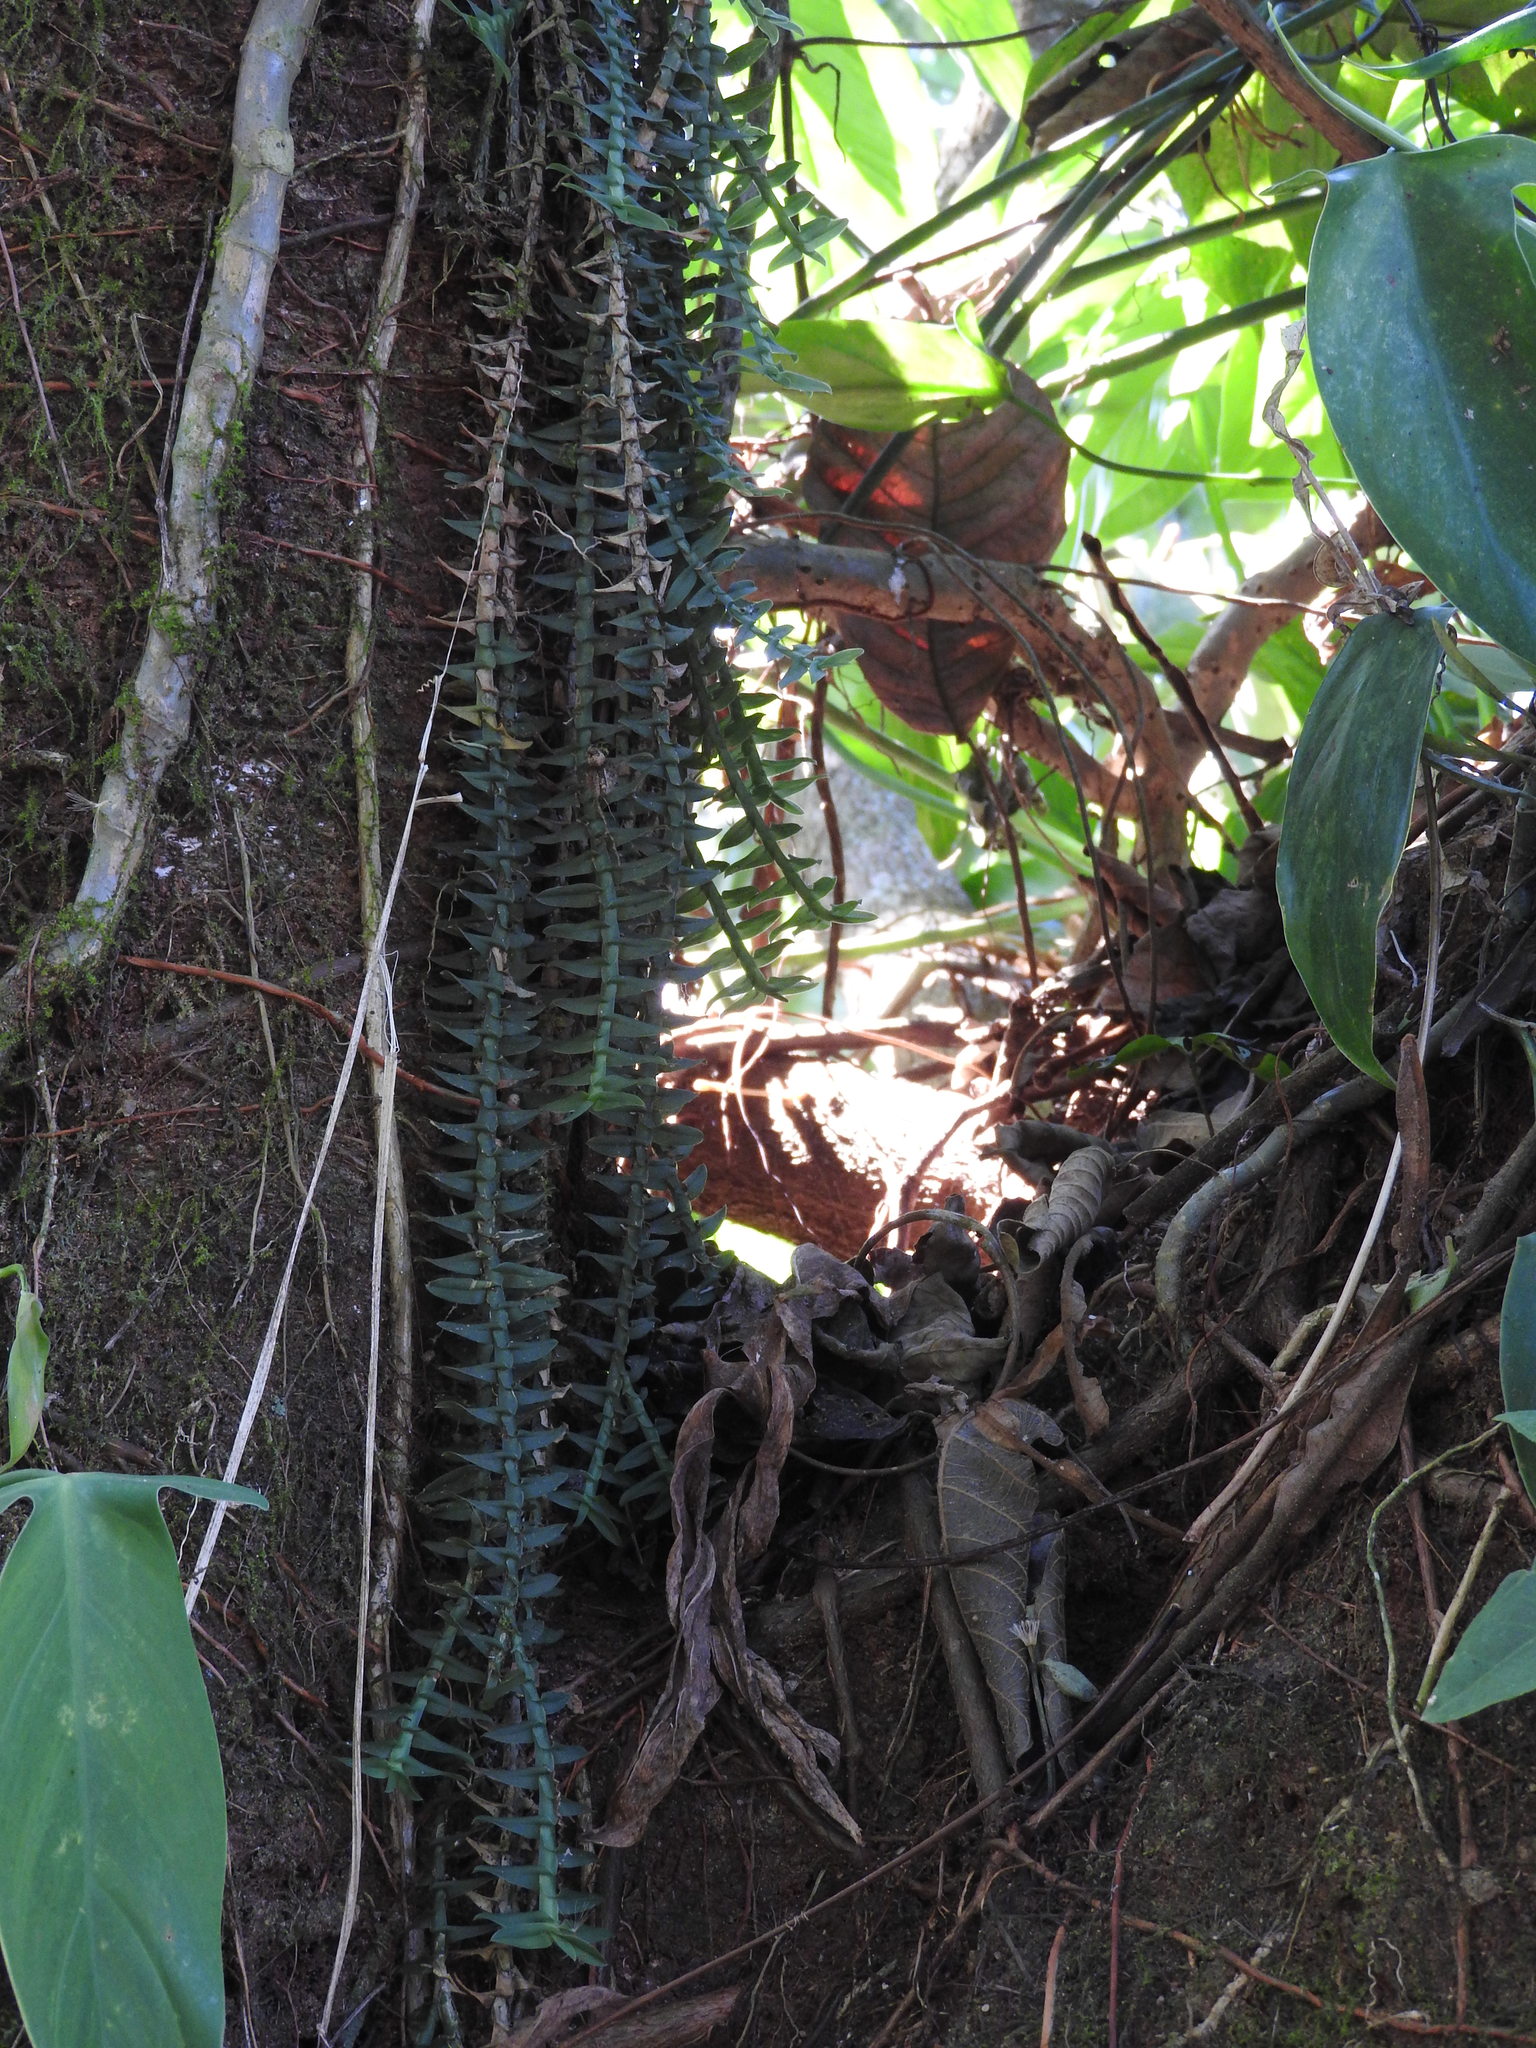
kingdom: Plantae
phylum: Tracheophyta
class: Liliopsida
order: Asparagales
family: Orchidaceae
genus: Dichaea
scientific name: Dichaea muricatoides
